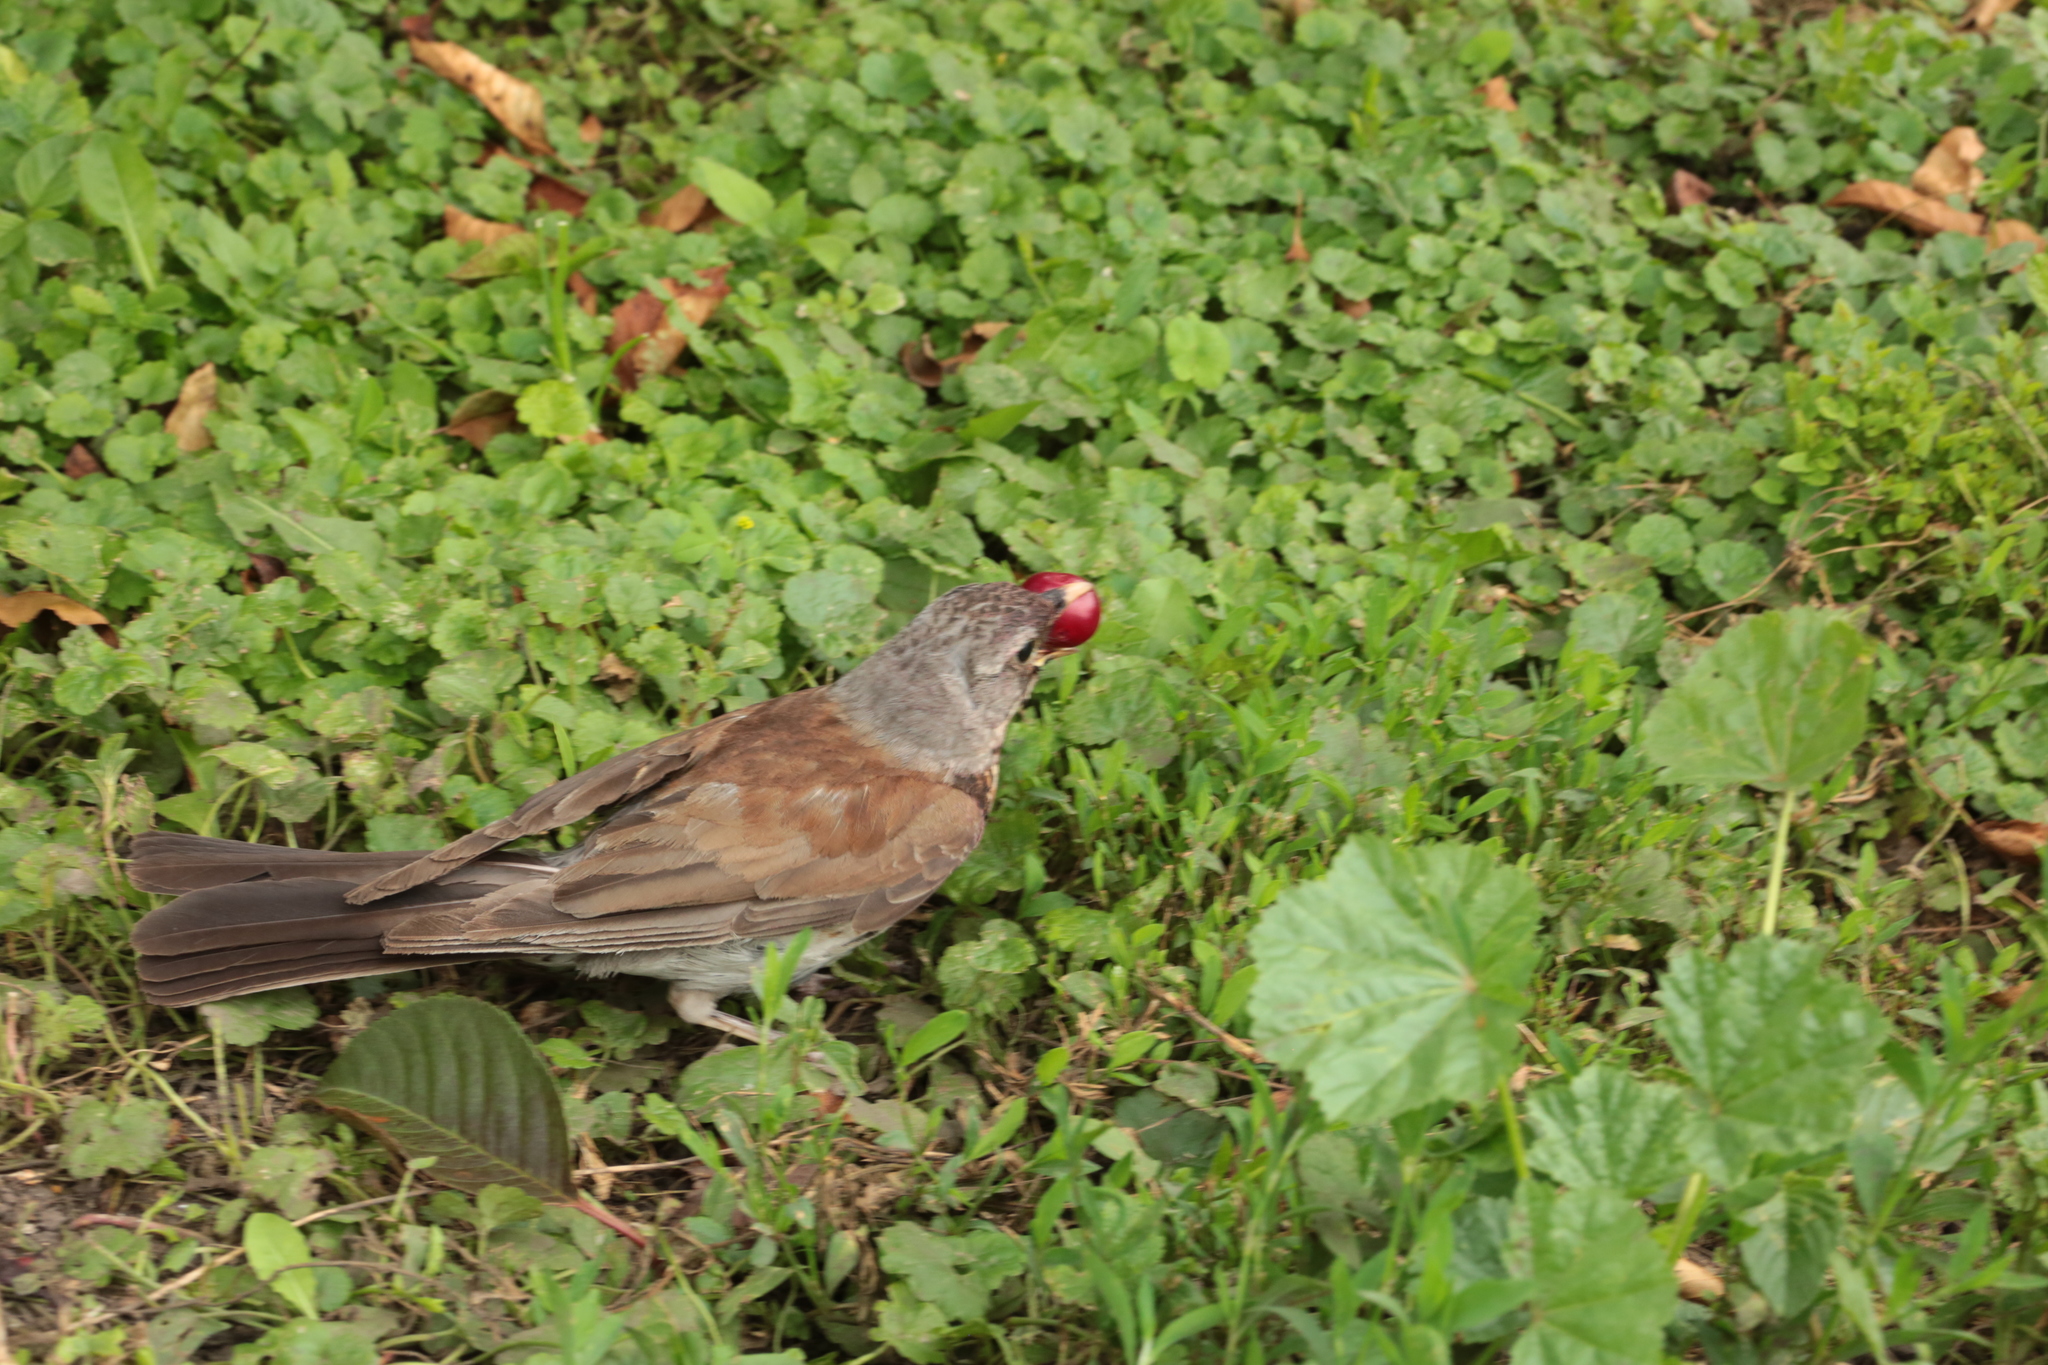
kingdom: Animalia
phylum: Chordata
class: Aves
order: Passeriformes
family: Turdidae
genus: Turdus
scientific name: Turdus pilaris
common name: Fieldfare
